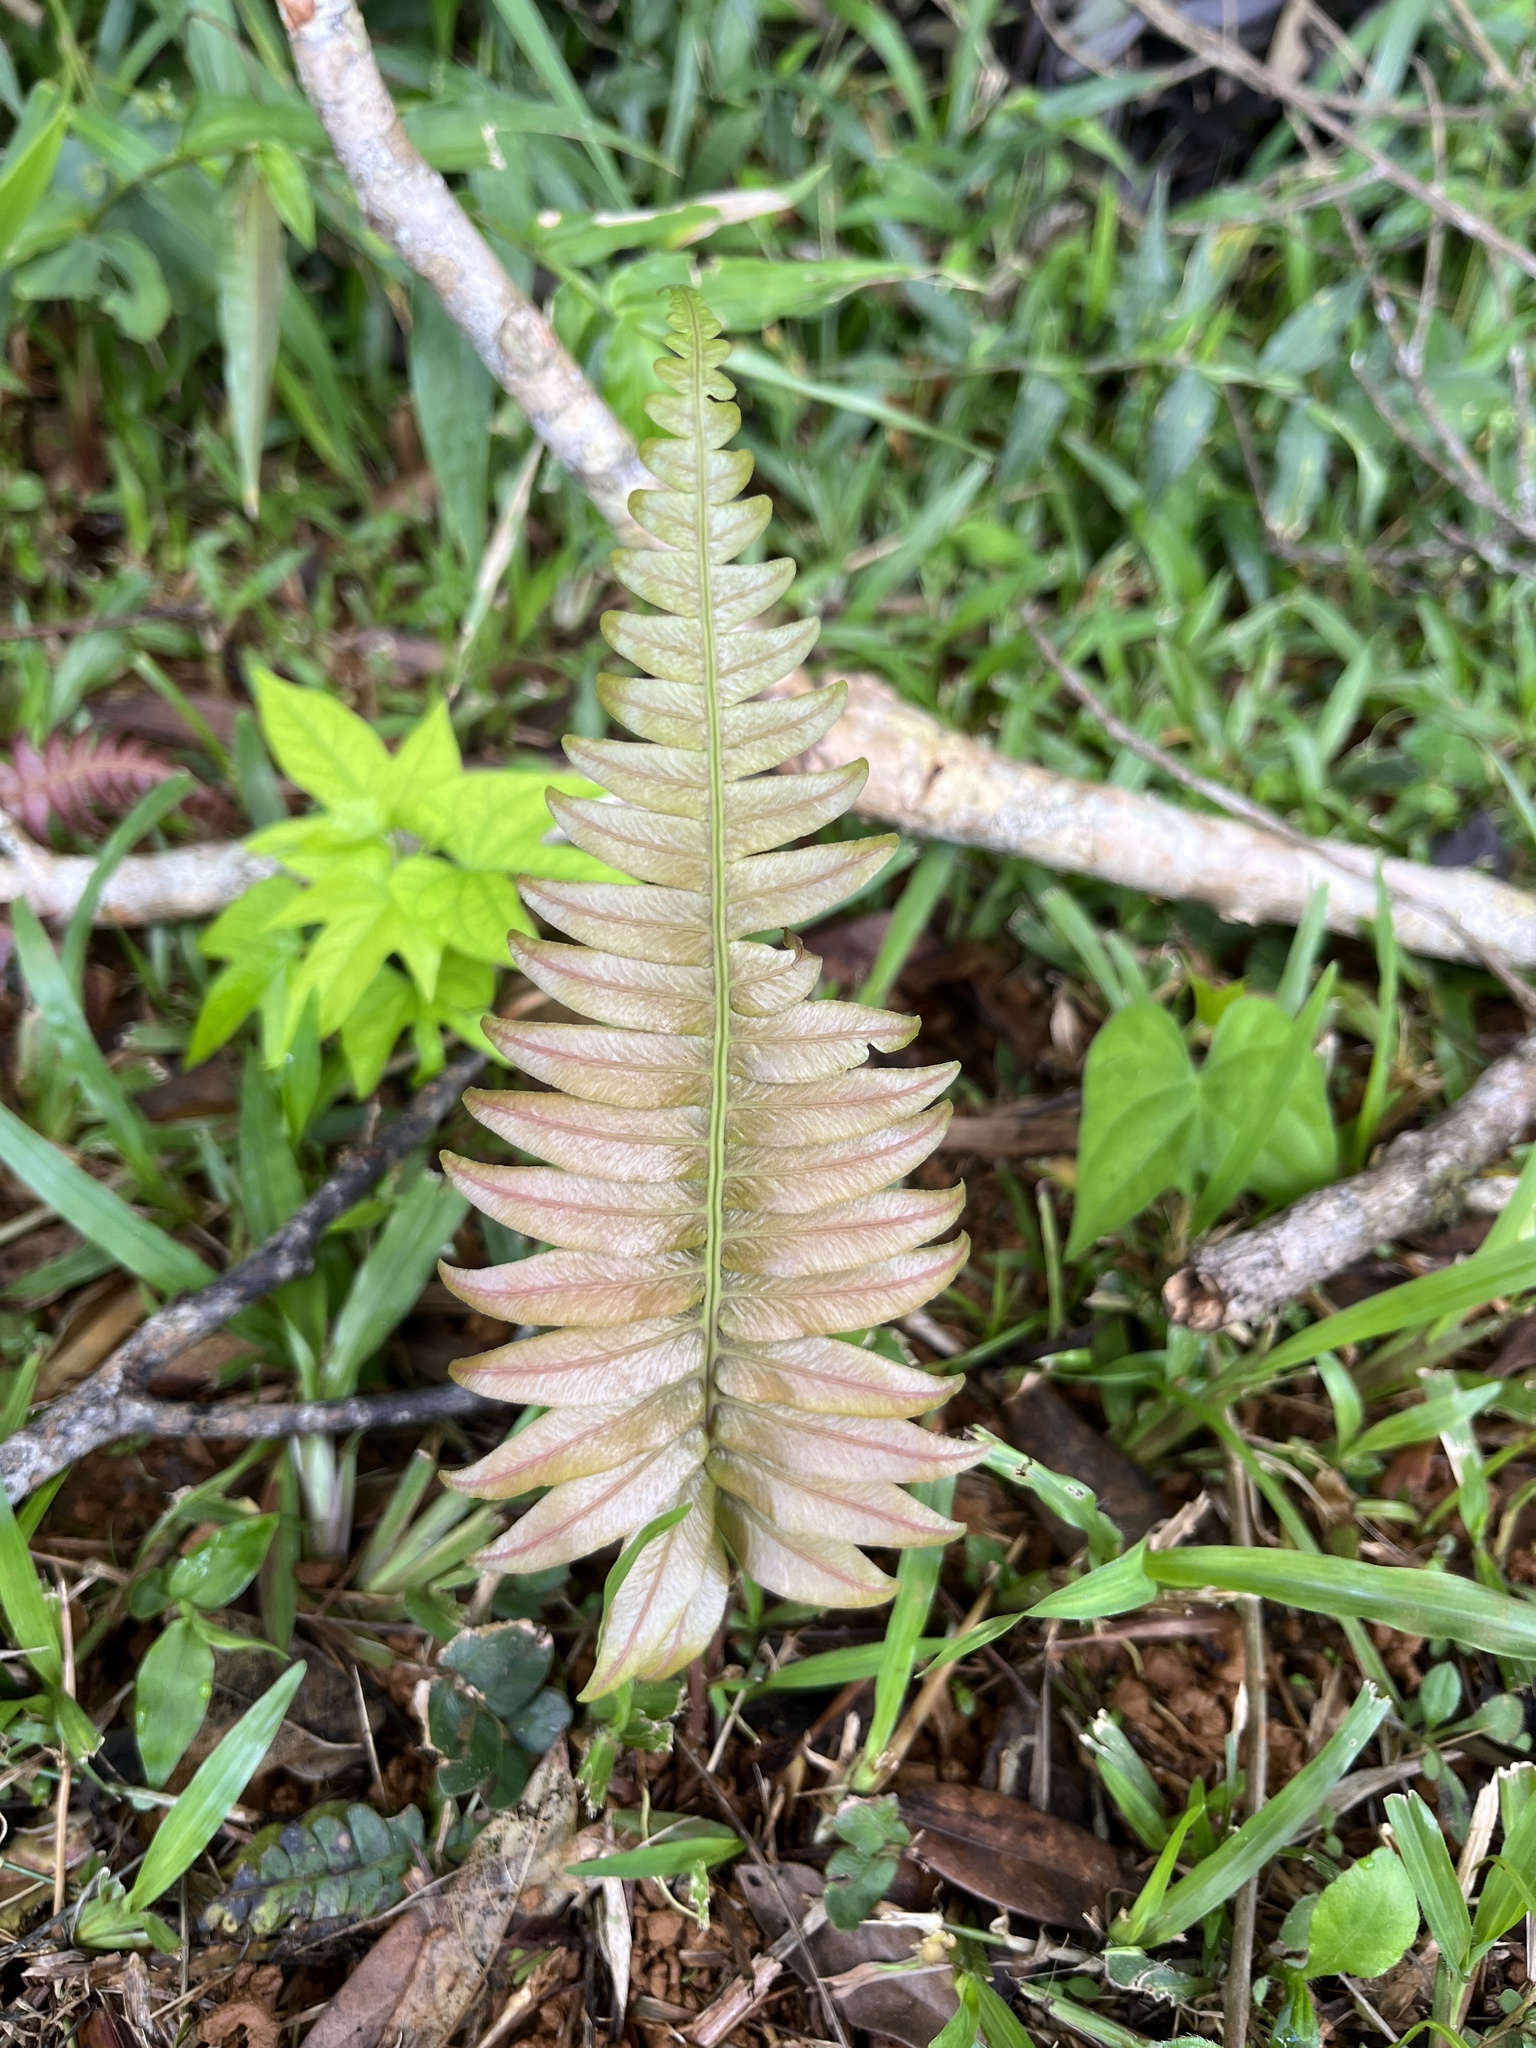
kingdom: Plantae
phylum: Tracheophyta
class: Polypodiopsida
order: Polypodiales
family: Blechnaceae
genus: Blechnum
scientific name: Blechnum occidentale
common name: Hammock fern
